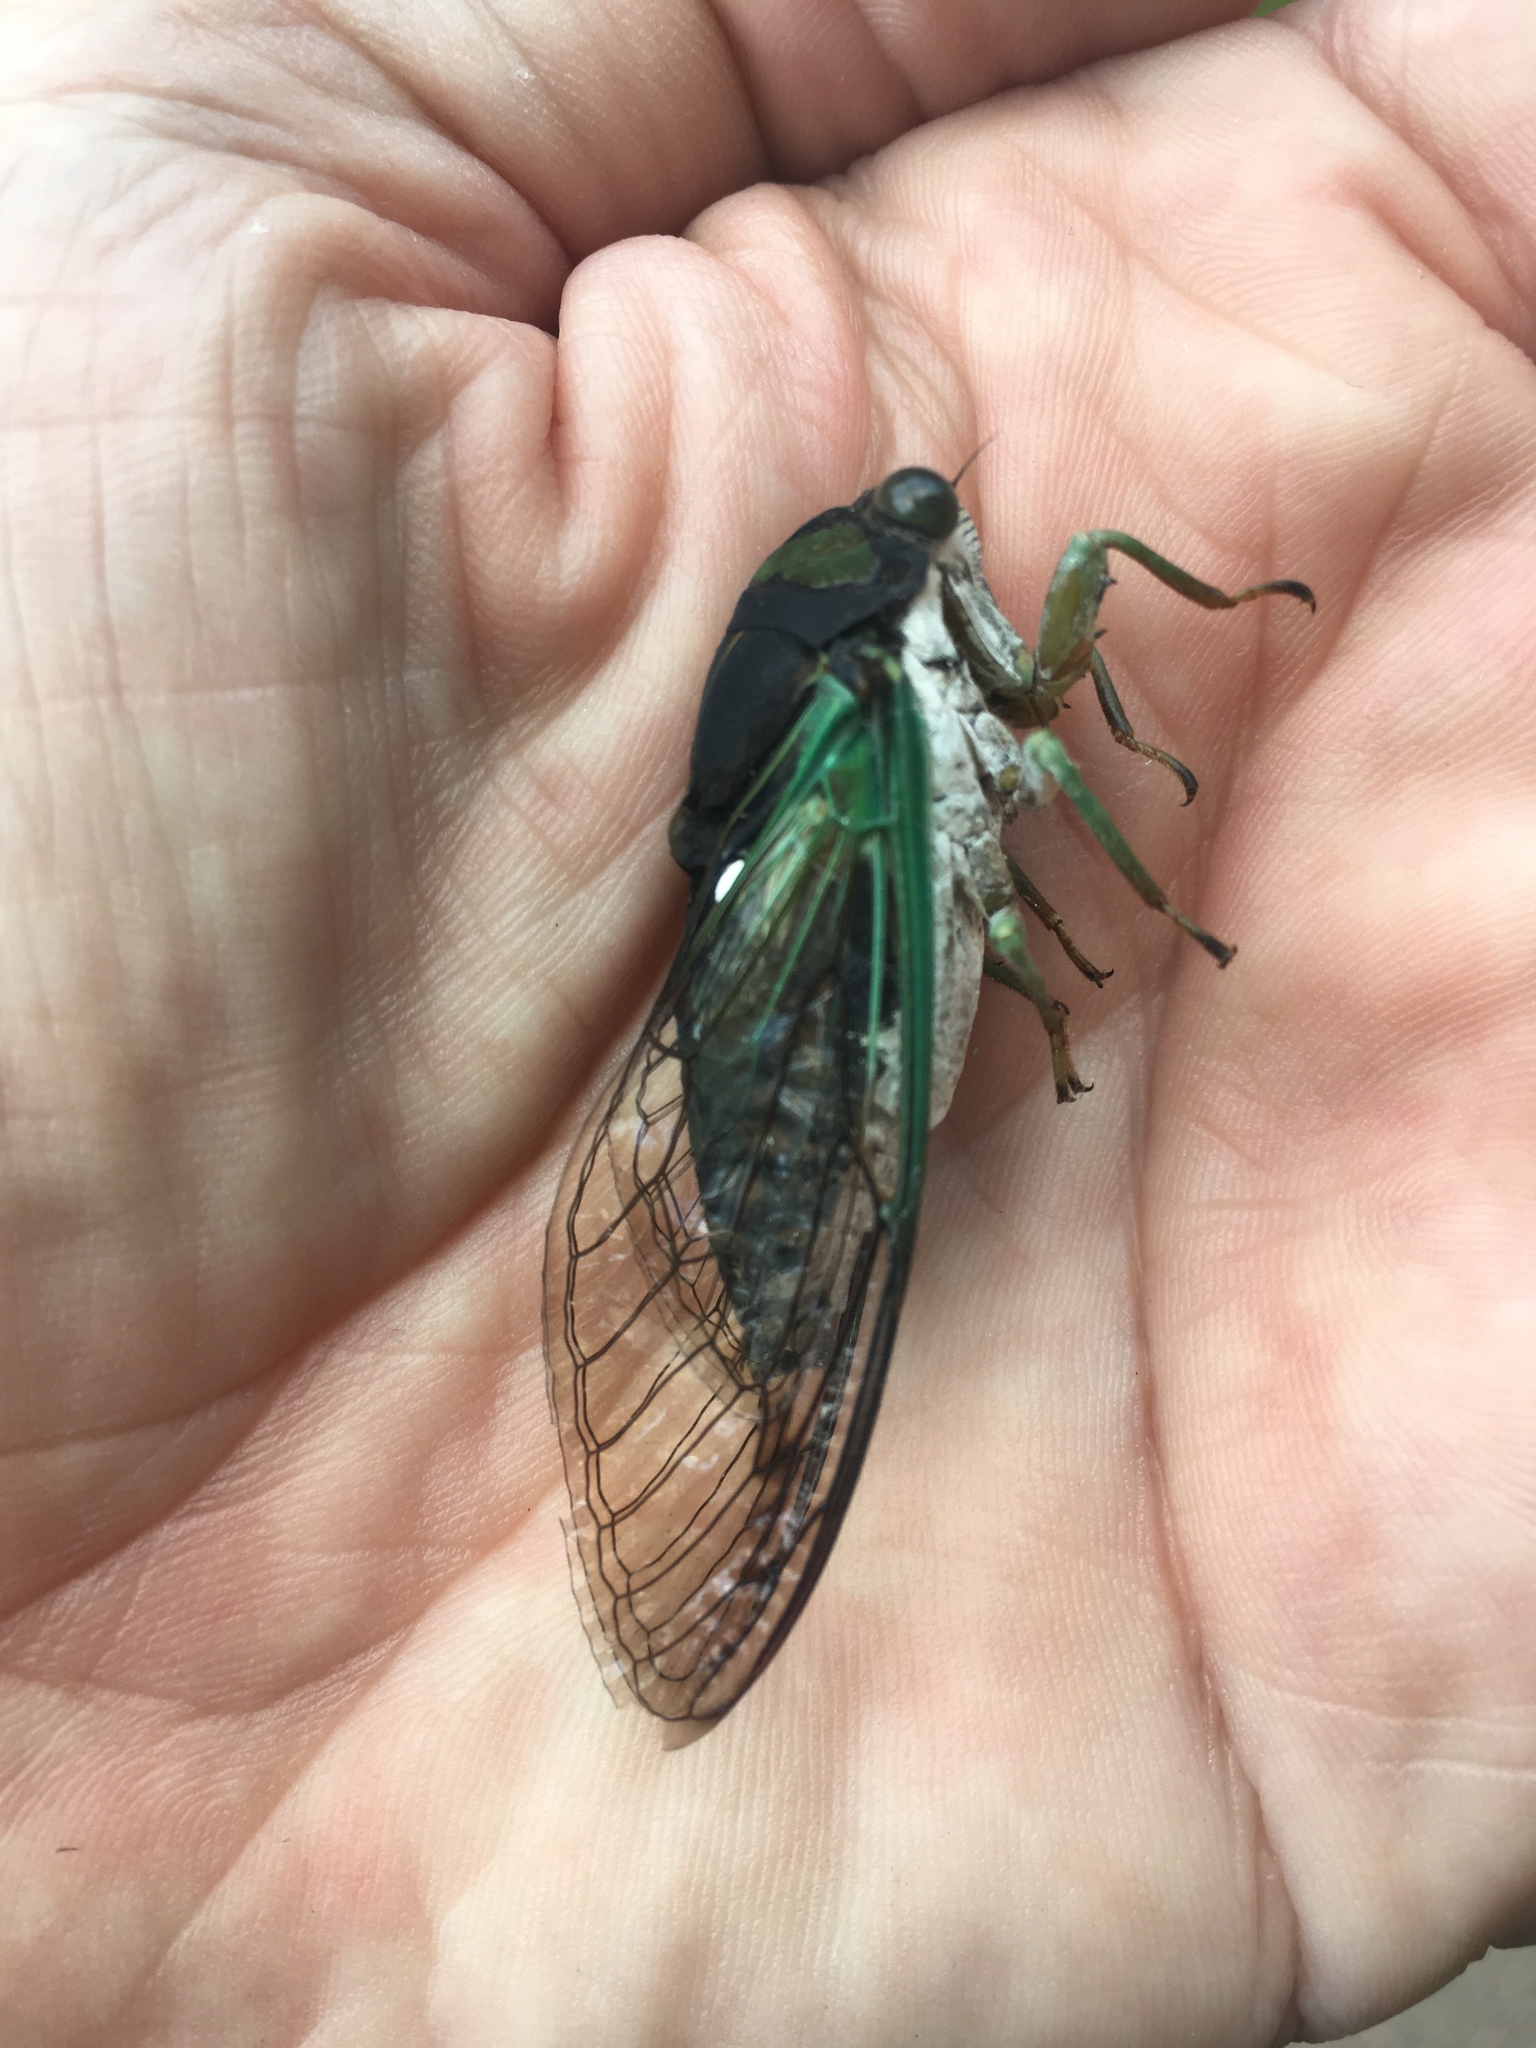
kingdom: Animalia
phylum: Arthropoda
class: Insecta
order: Hemiptera
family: Cicadidae
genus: Neotibicen
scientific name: Neotibicen tibicen
